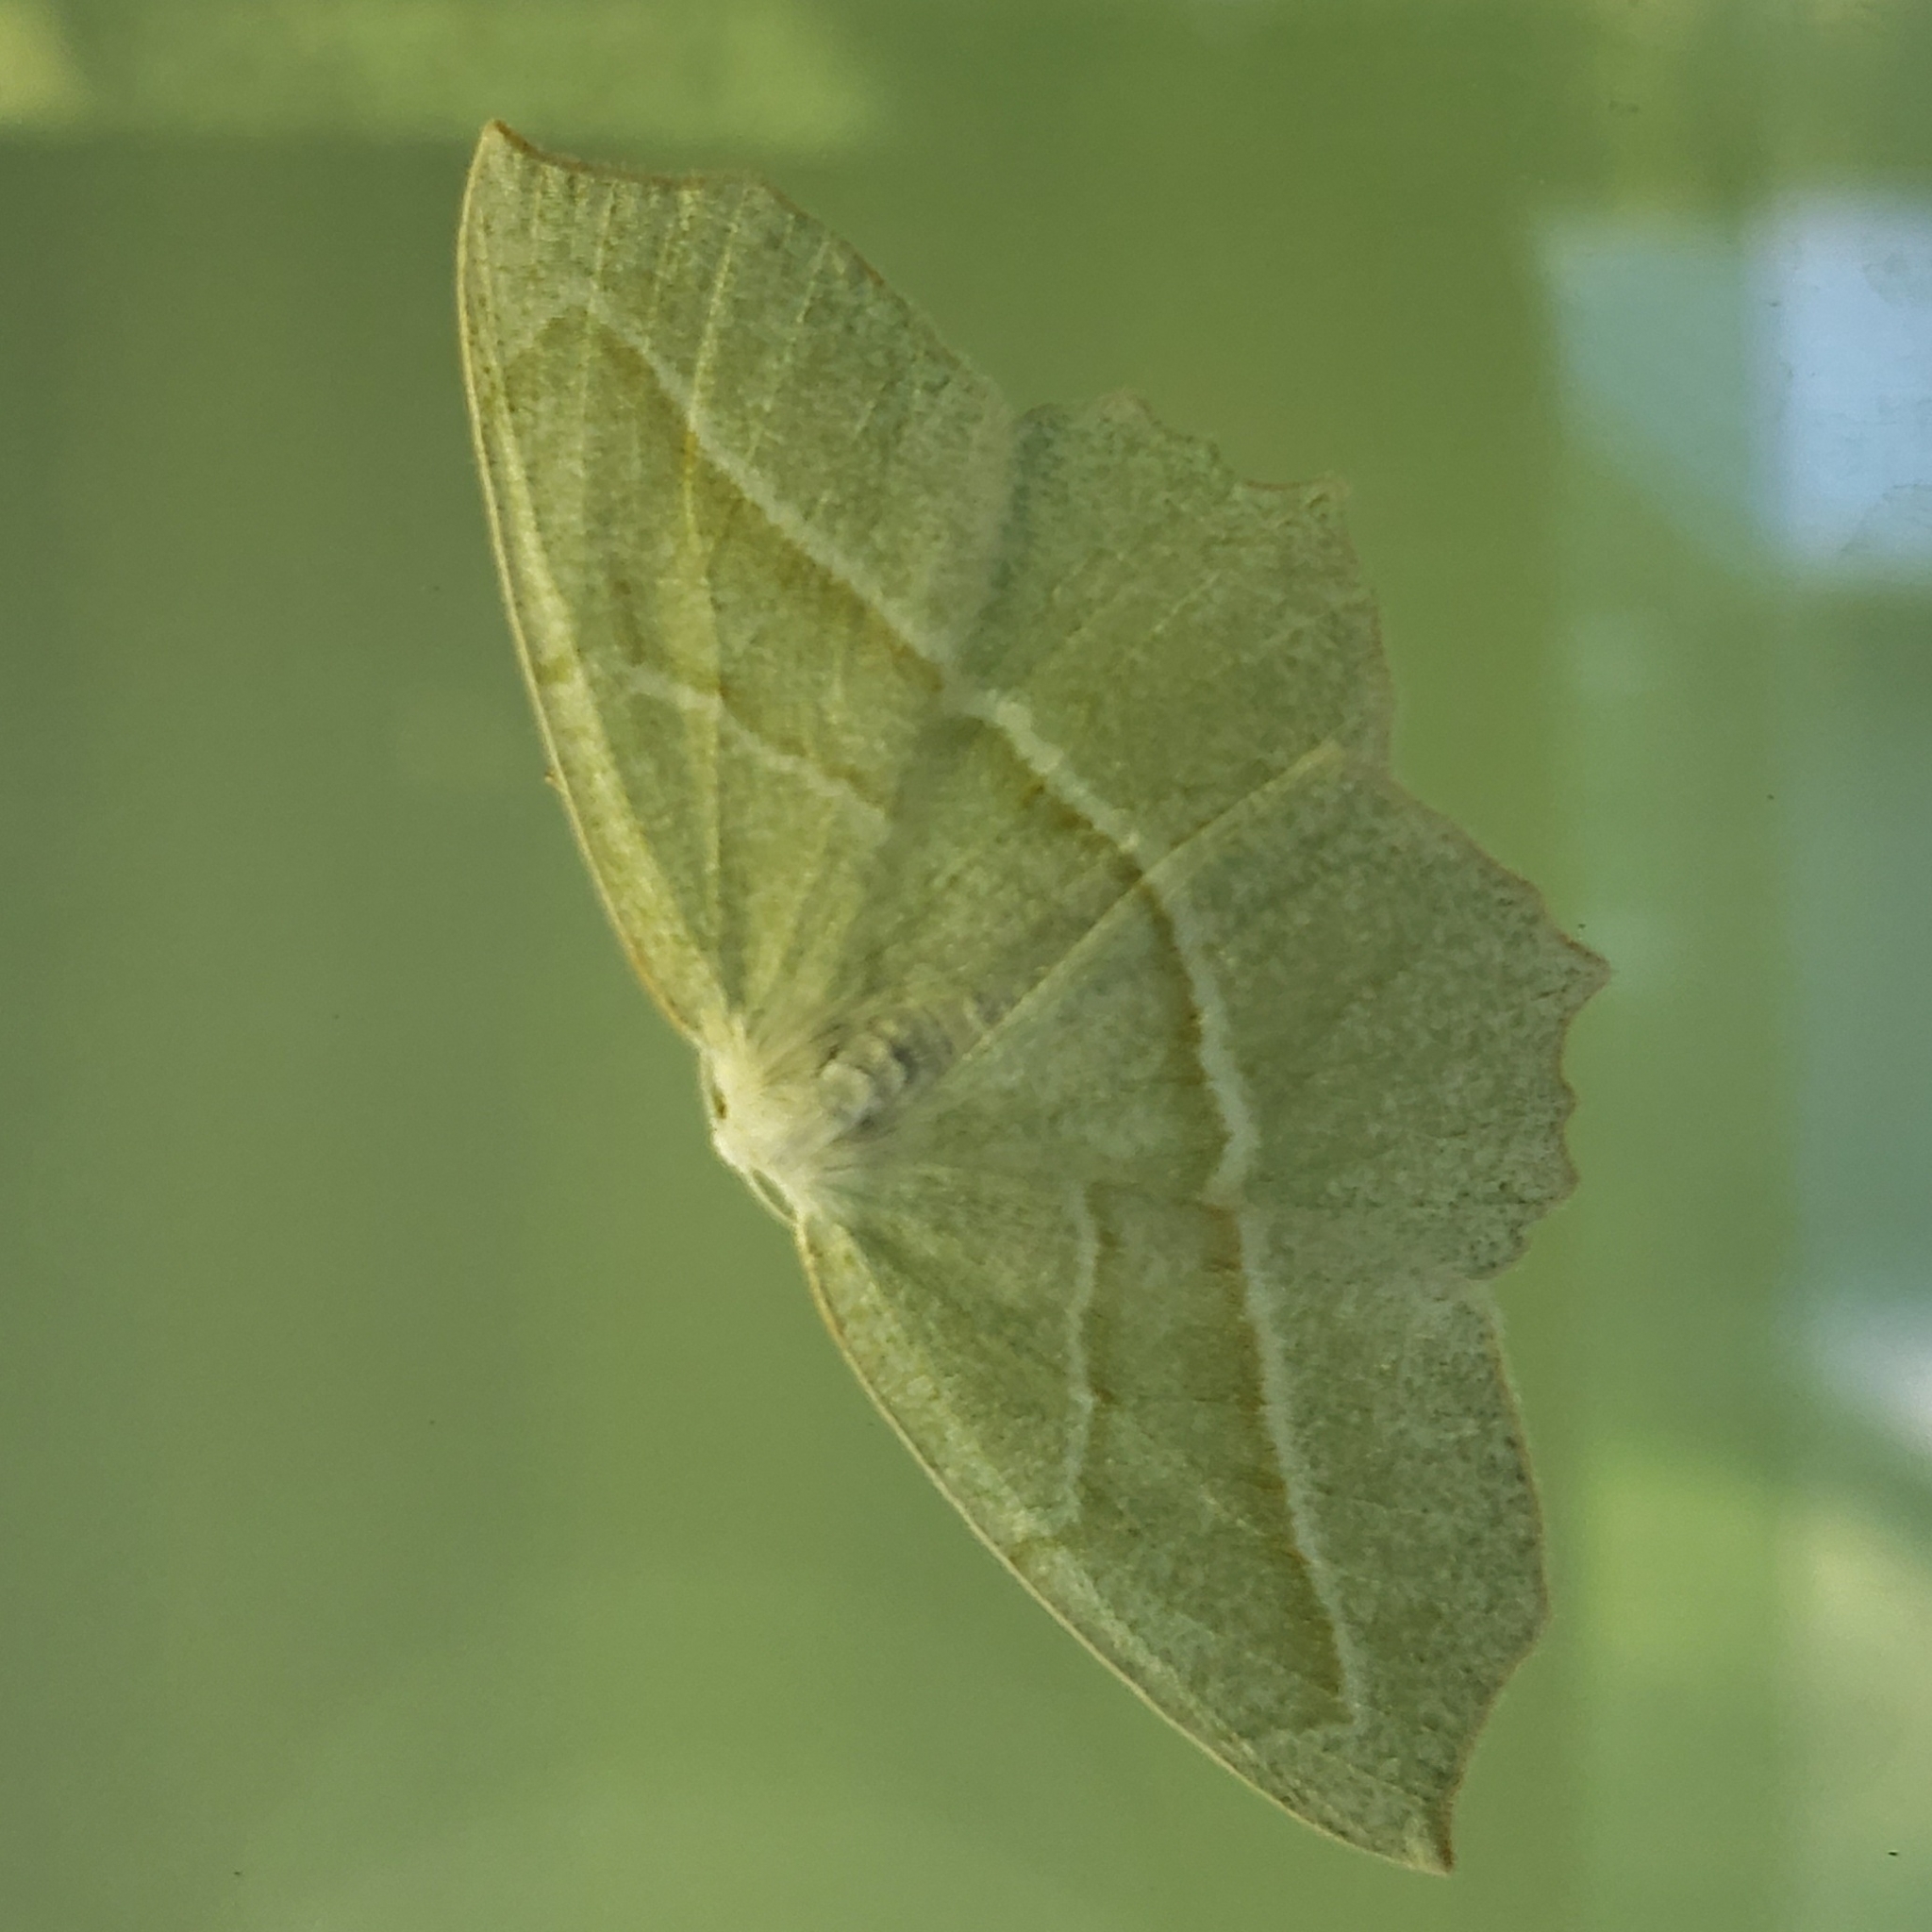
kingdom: Animalia
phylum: Arthropoda
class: Insecta
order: Lepidoptera
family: Geometridae
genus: Campaea
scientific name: Campaea perlata
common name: Fringed looper
